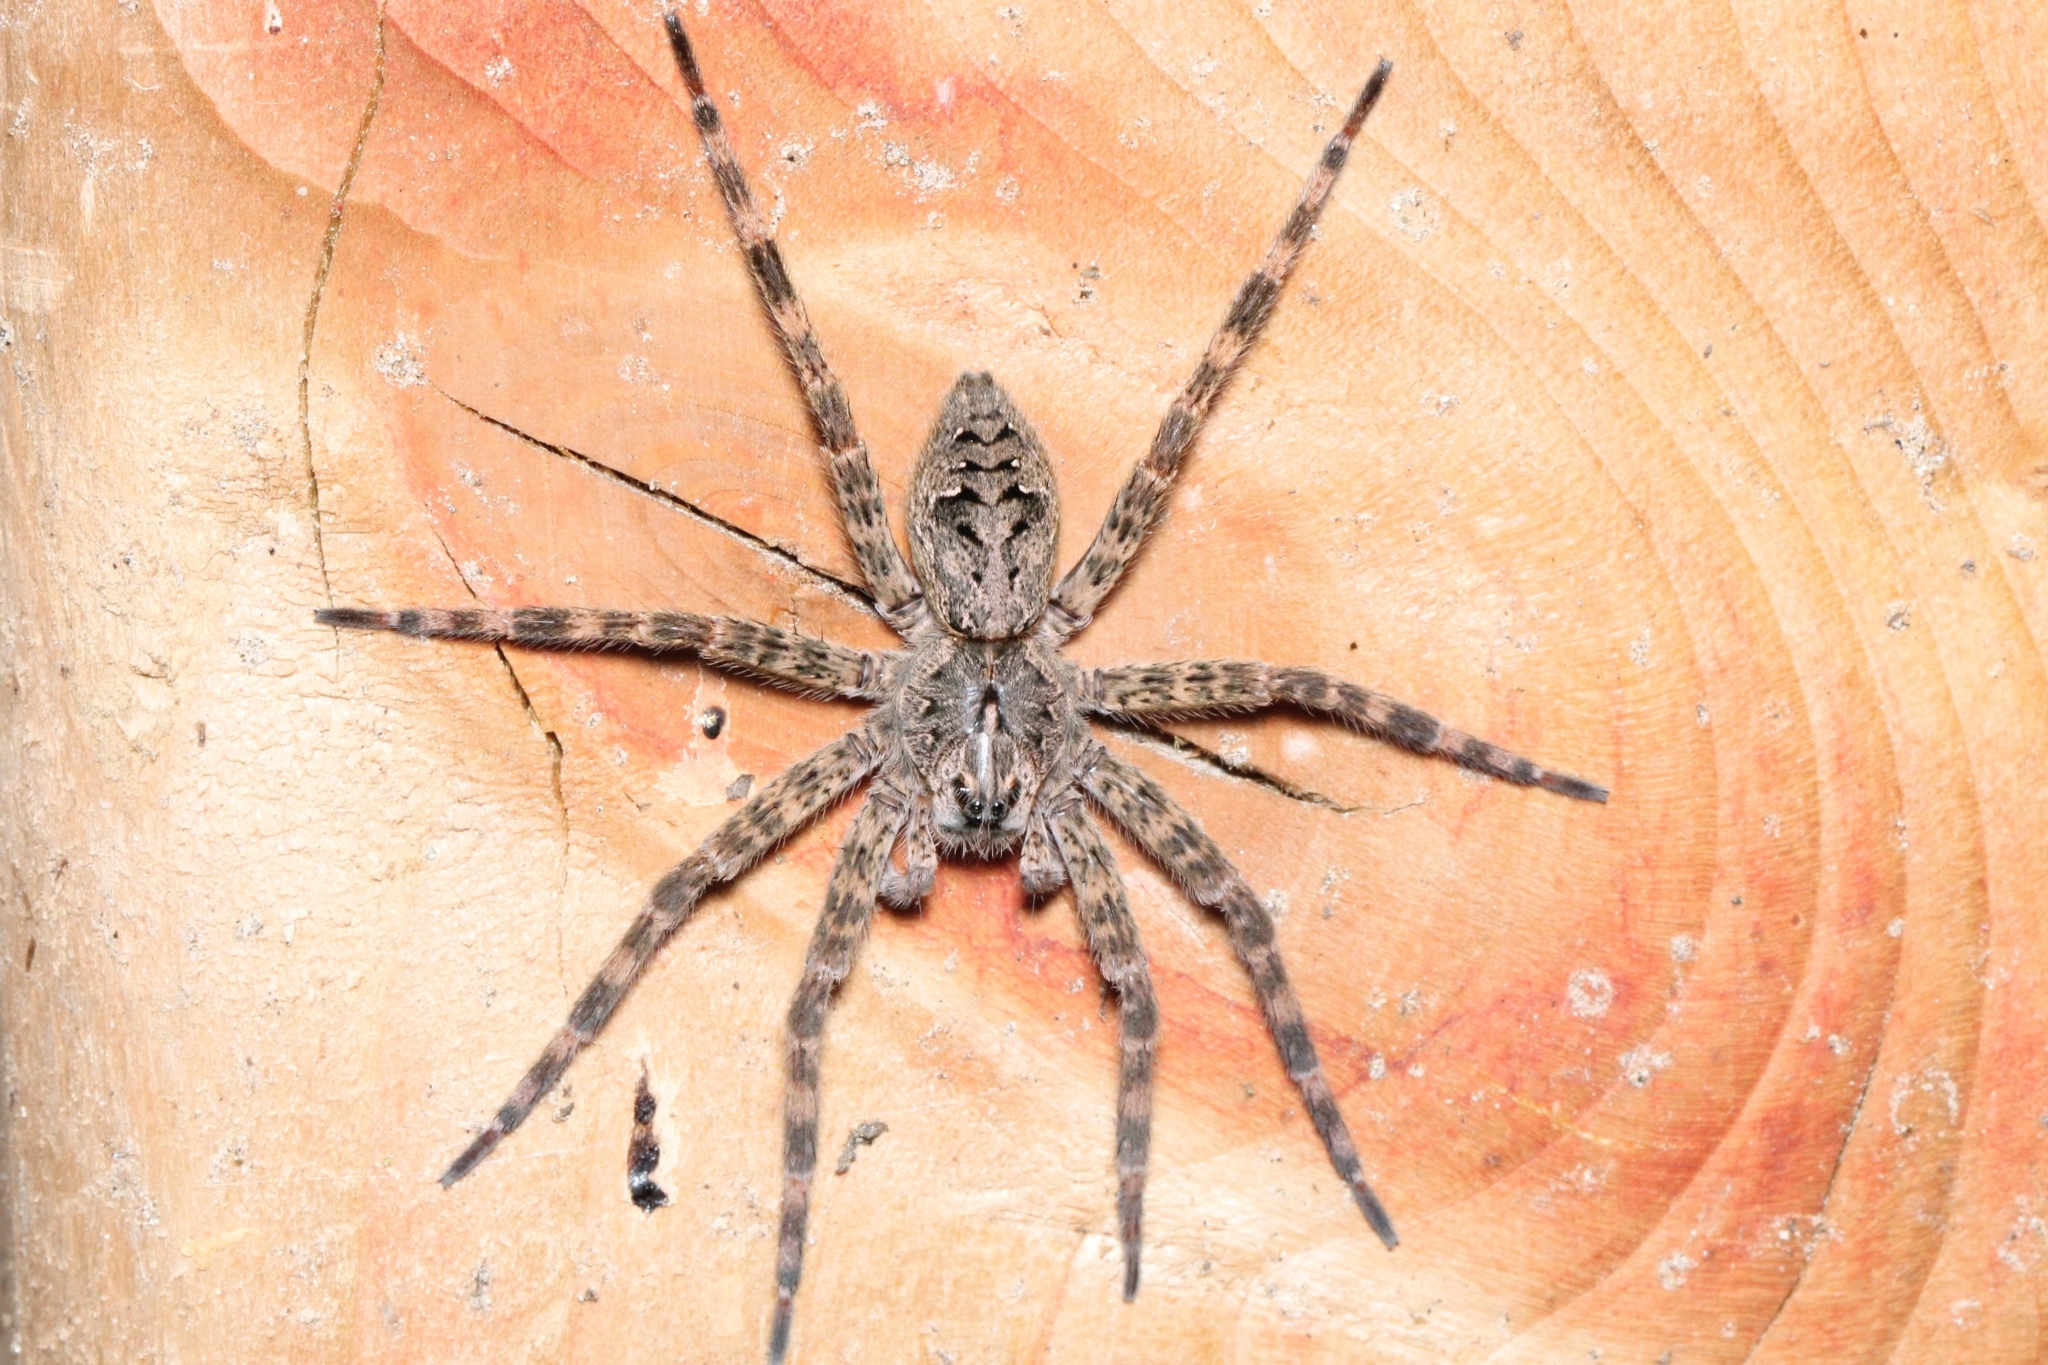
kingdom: Animalia
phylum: Arthropoda
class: Arachnida
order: Araneae
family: Pisauridae
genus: Dolomedes
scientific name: Dolomedes tenebrosus
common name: Dark fishing spider
